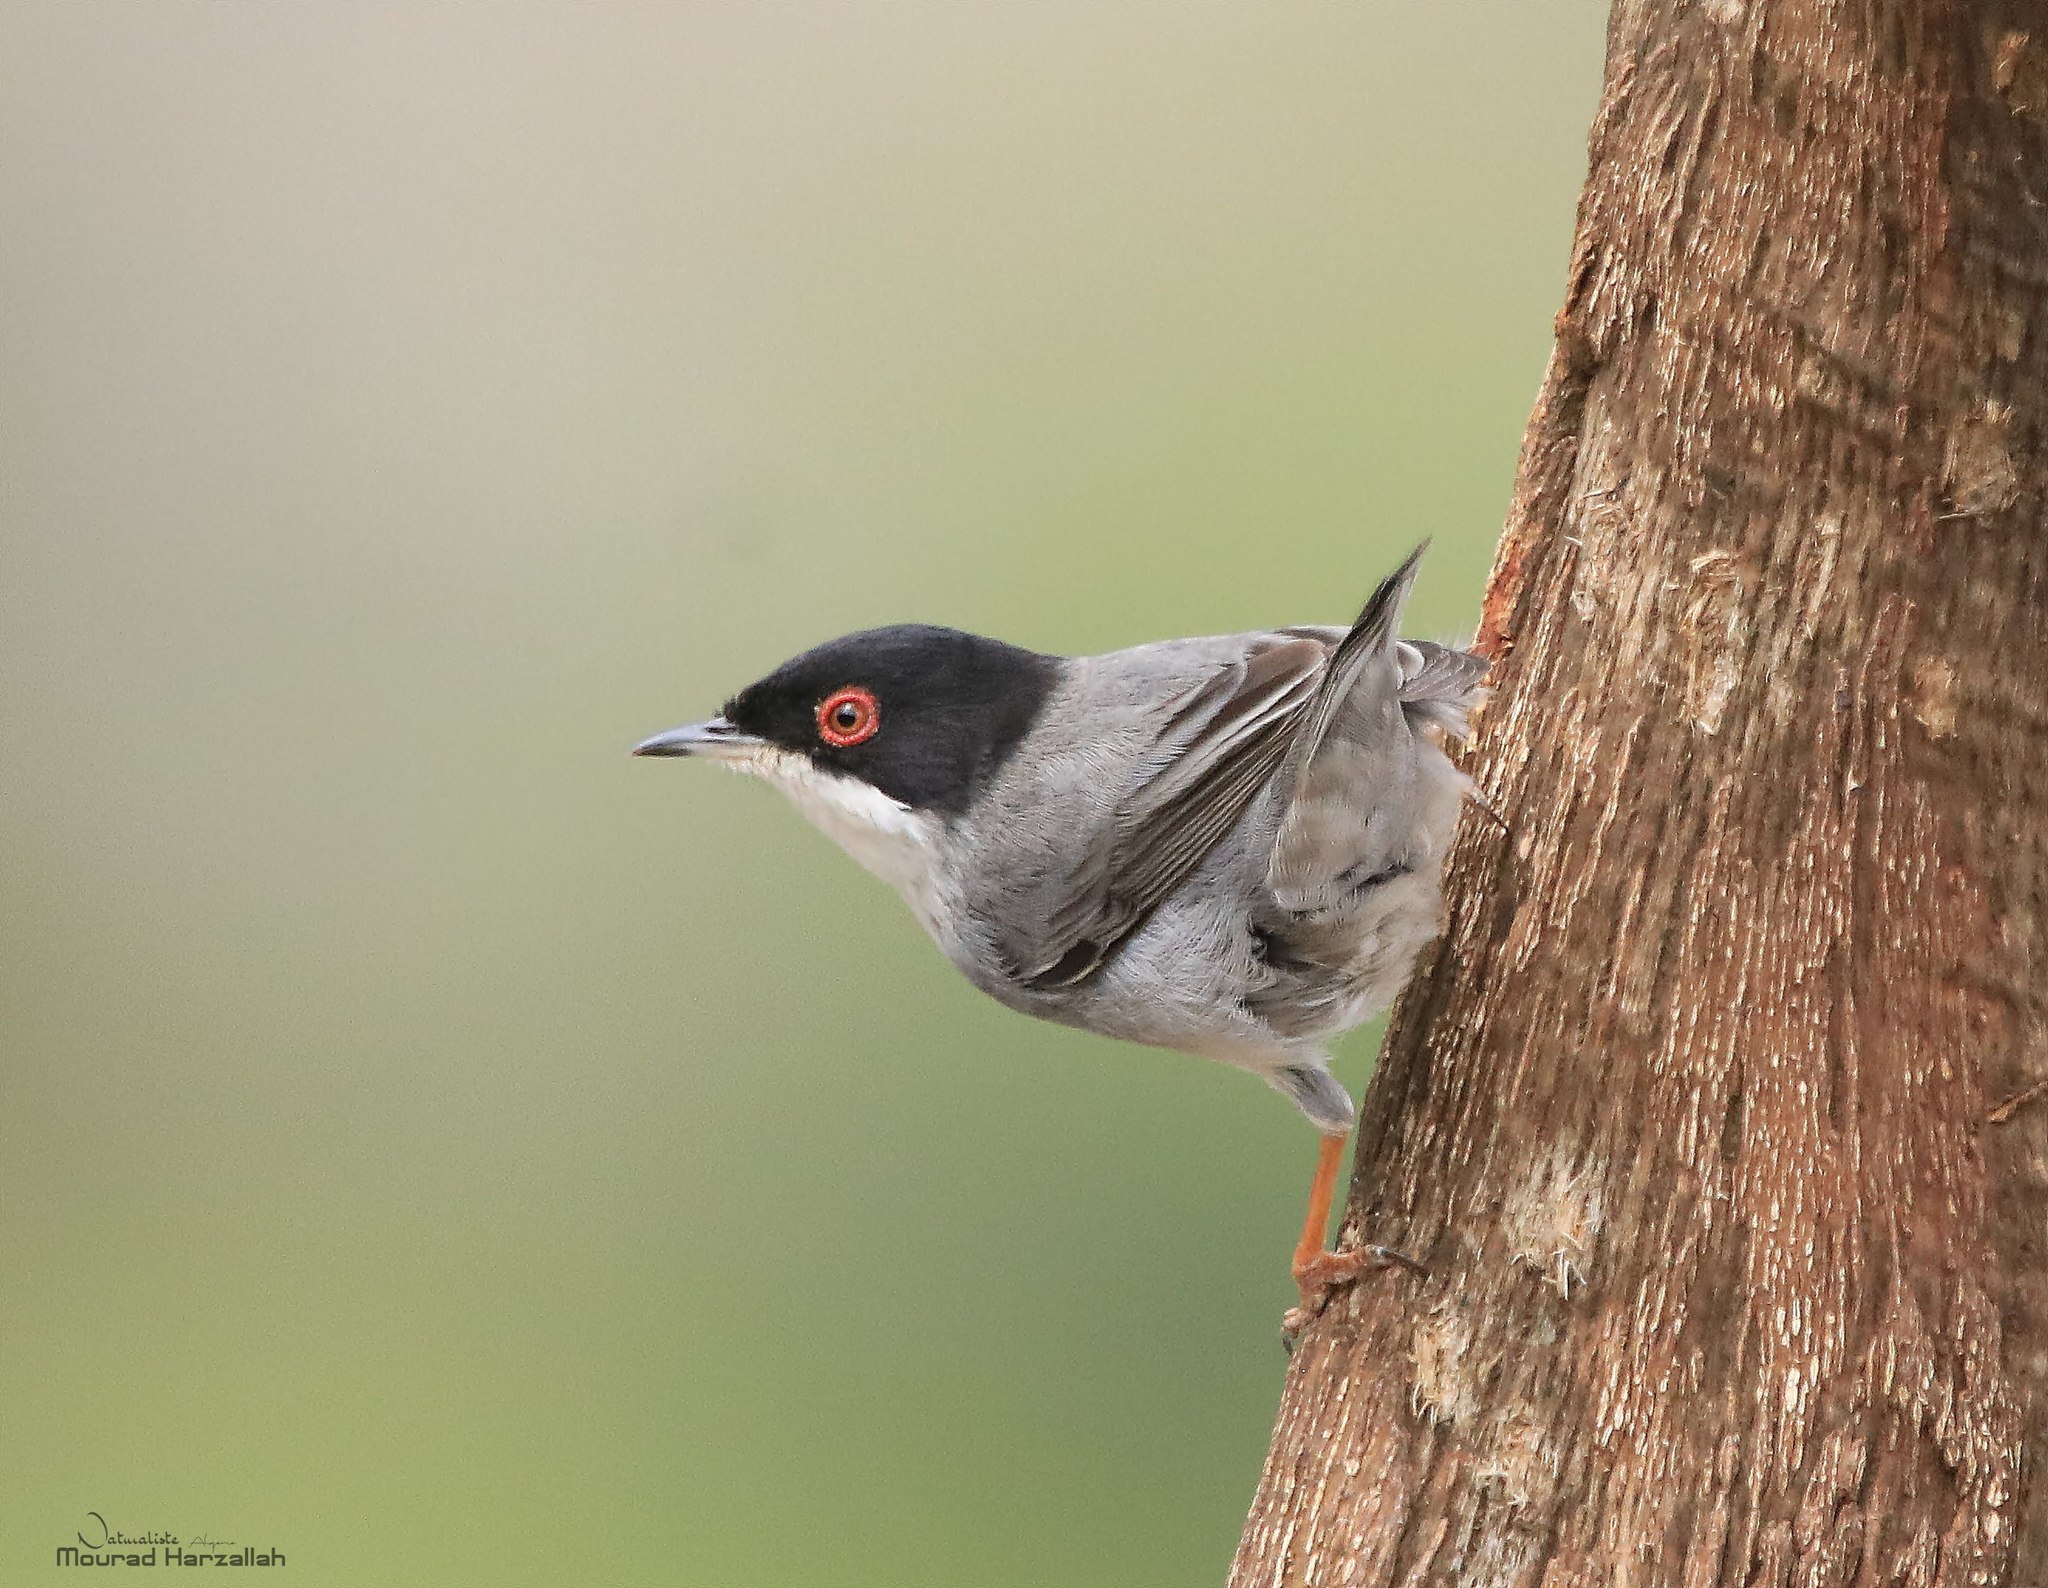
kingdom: Animalia
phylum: Chordata
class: Aves
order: Passeriformes
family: Sylviidae
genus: Curruca
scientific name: Curruca melanocephala
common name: Sardinian warbler
